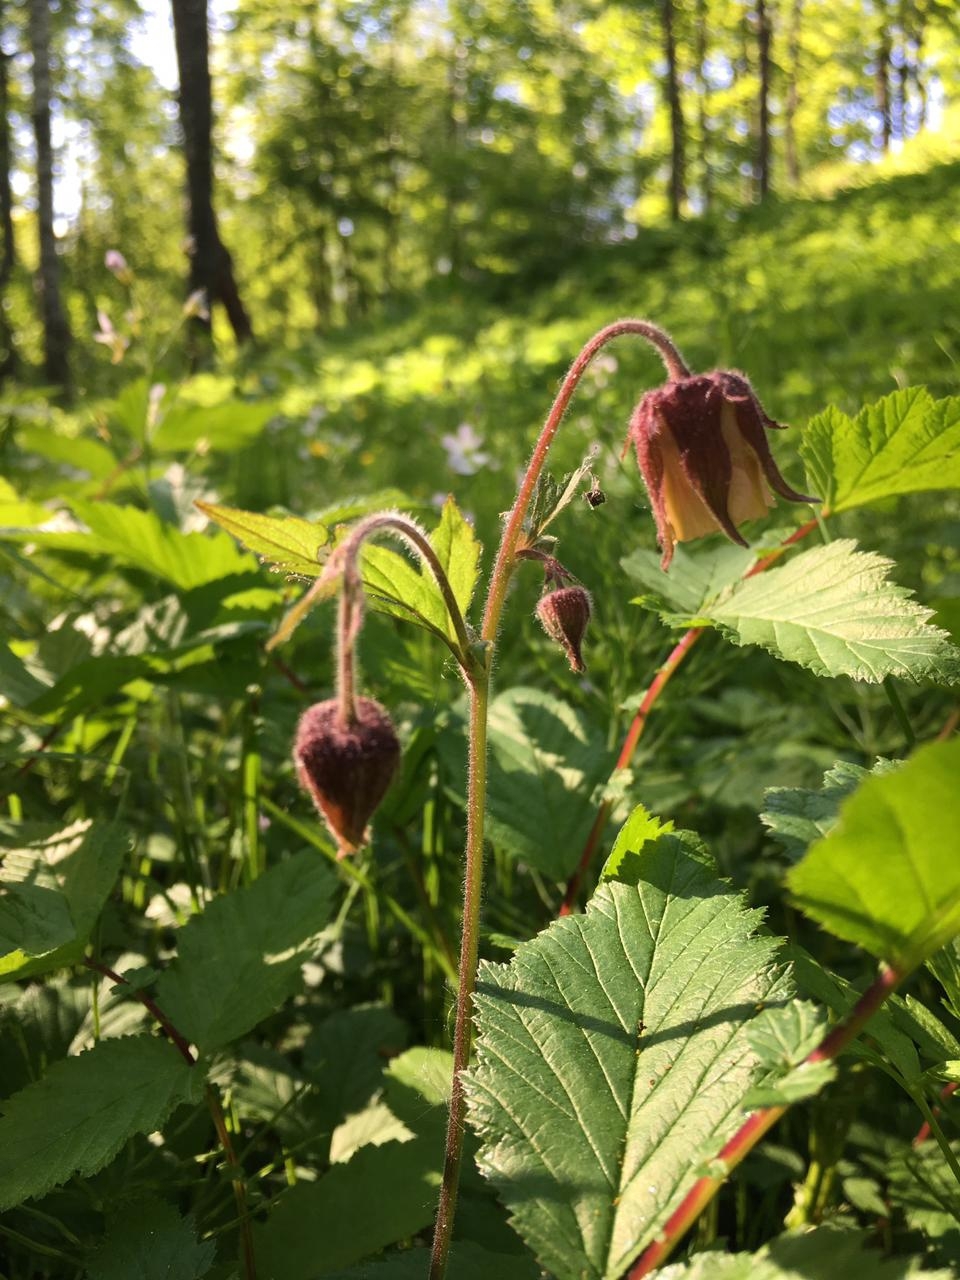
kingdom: Plantae
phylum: Tracheophyta
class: Magnoliopsida
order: Rosales
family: Rosaceae
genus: Geum
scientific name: Geum rivale
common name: Water avens
